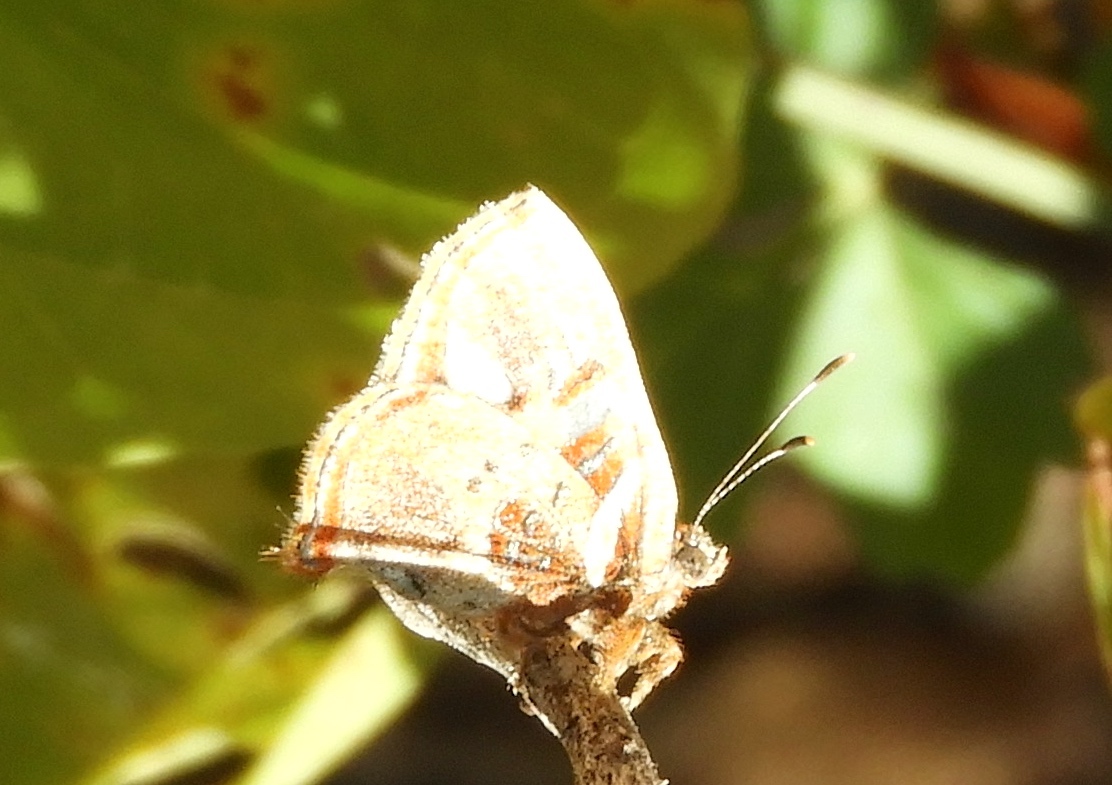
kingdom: Animalia
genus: Anteros
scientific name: Anteros carausius
